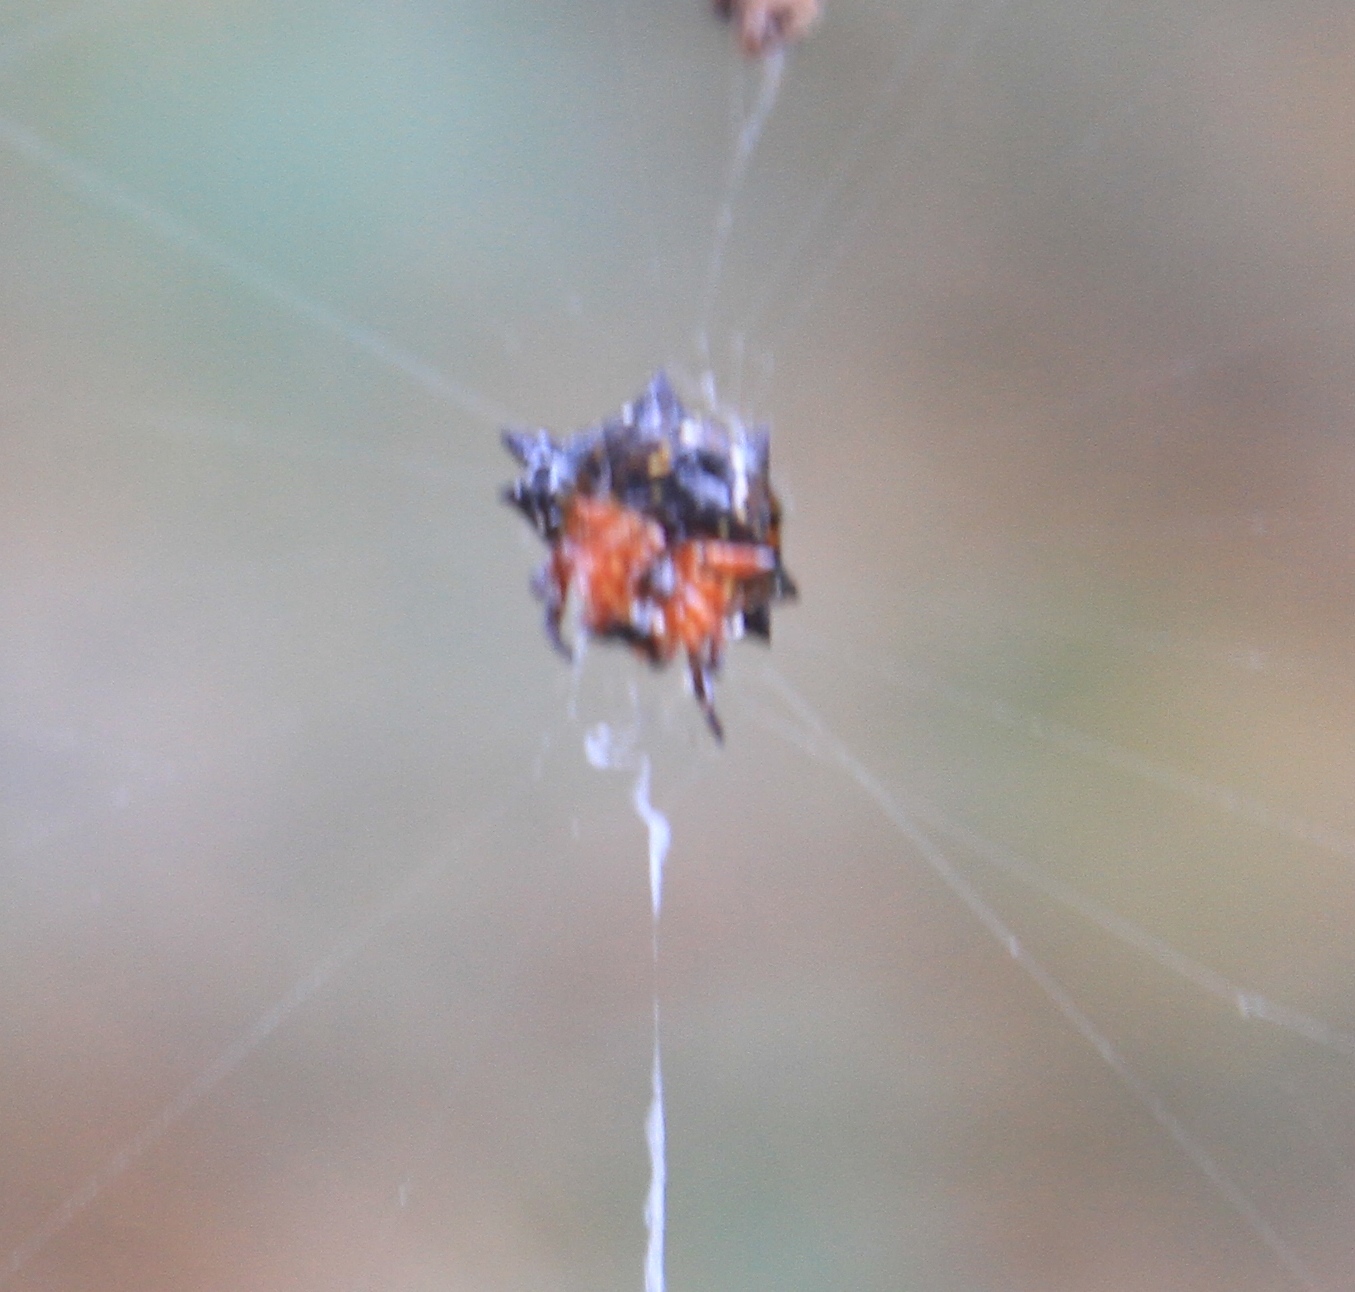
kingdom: Animalia
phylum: Arthropoda
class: Arachnida
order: Araneae
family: Araneidae
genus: Gasteracantha
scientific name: Gasteracantha cancriformis
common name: Orb weavers
